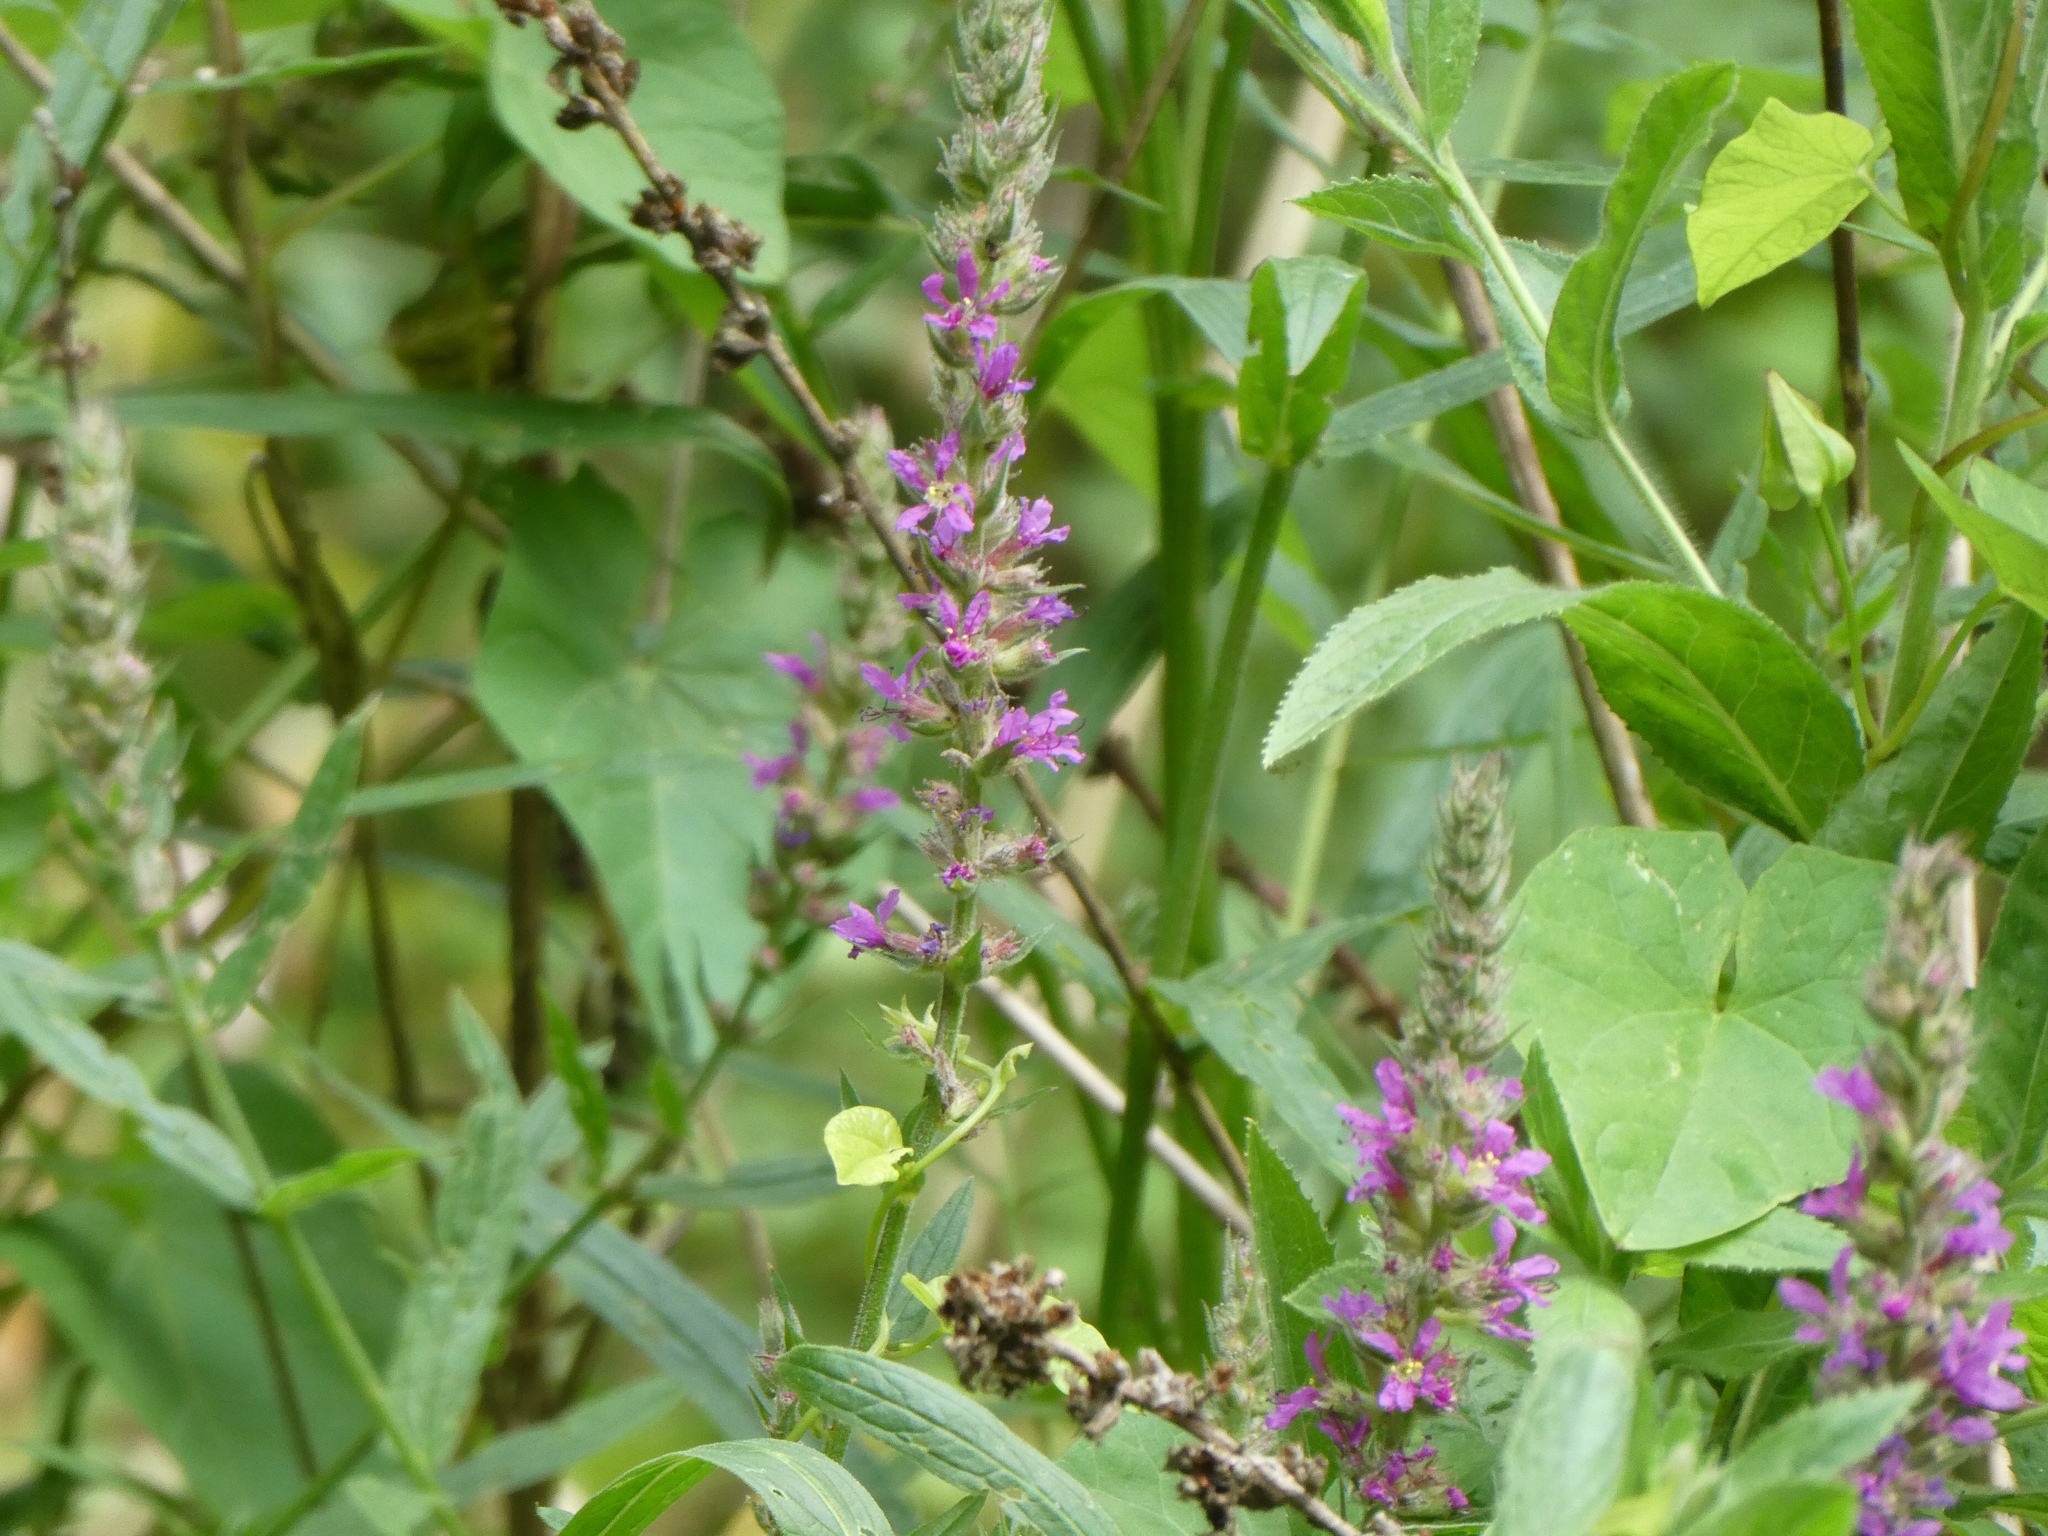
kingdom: Plantae
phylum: Tracheophyta
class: Magnoliopsida
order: Myrtales
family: Lythraceae
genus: Lythrum
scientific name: Lythrum salicaria
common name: Purple loosestrife
